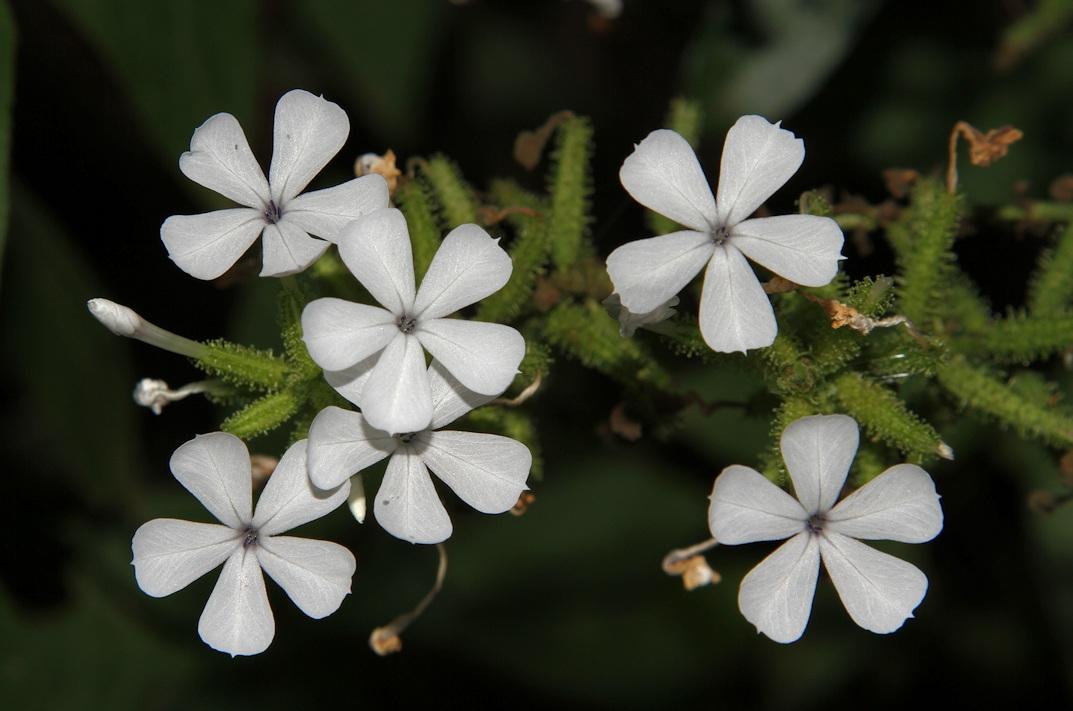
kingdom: Plantae
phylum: Tracheophyta
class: Magnoliopsida
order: Caryophyllales
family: Plumbaginaceae
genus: Plumbago
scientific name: Plumbago zeylanica
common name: Doctorbush
